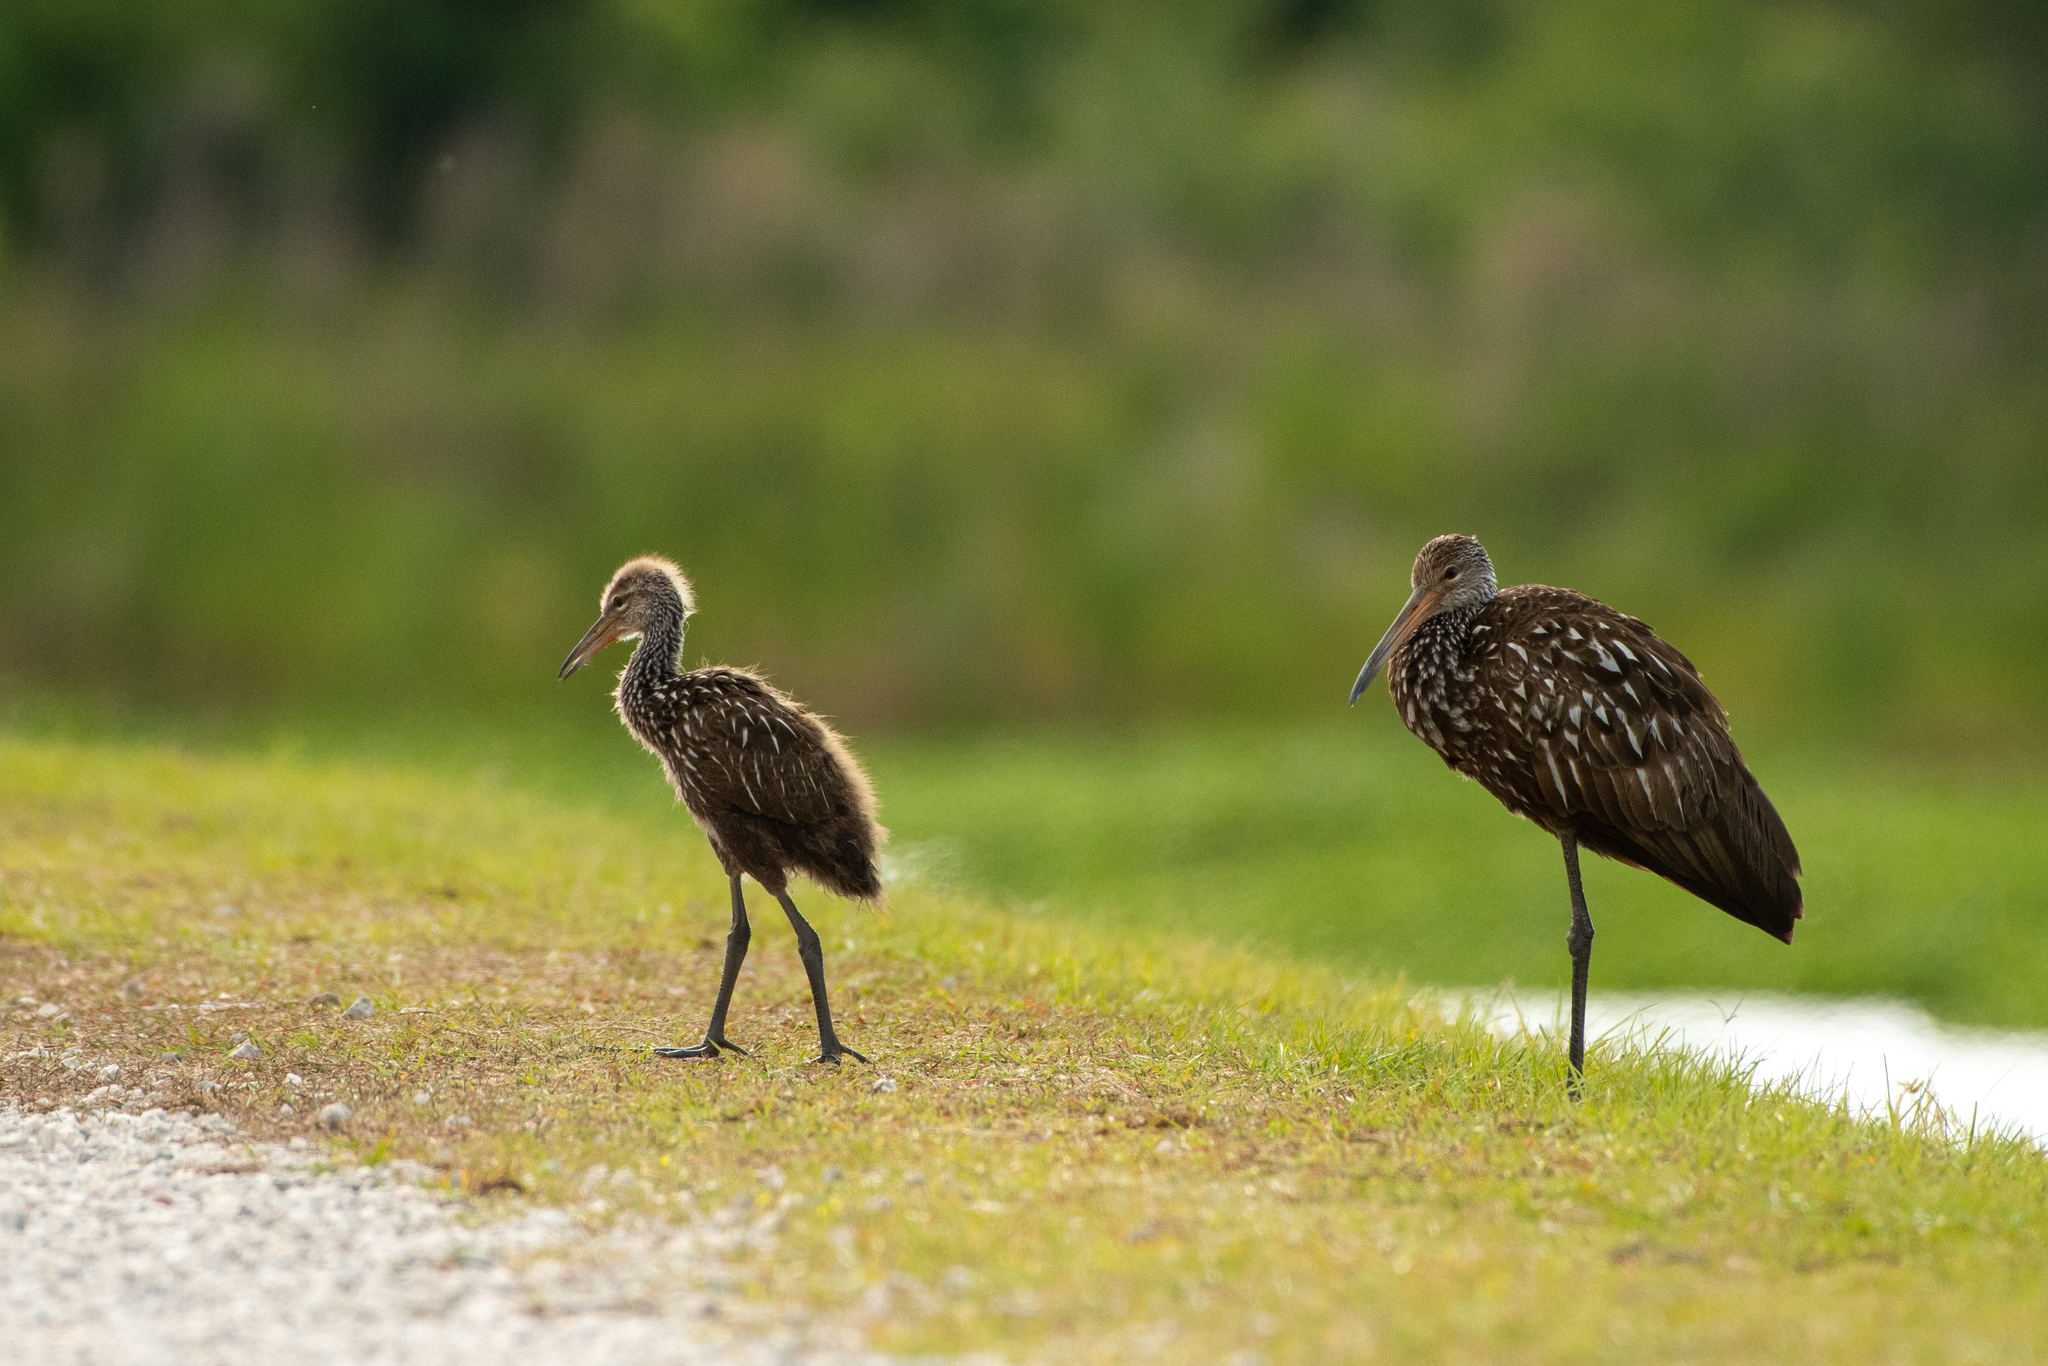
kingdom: Animalia
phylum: Chordata
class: Aves
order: Gruiformes
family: Aramidae
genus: Aramus
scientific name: Aramus guarauna
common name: Limpkin
